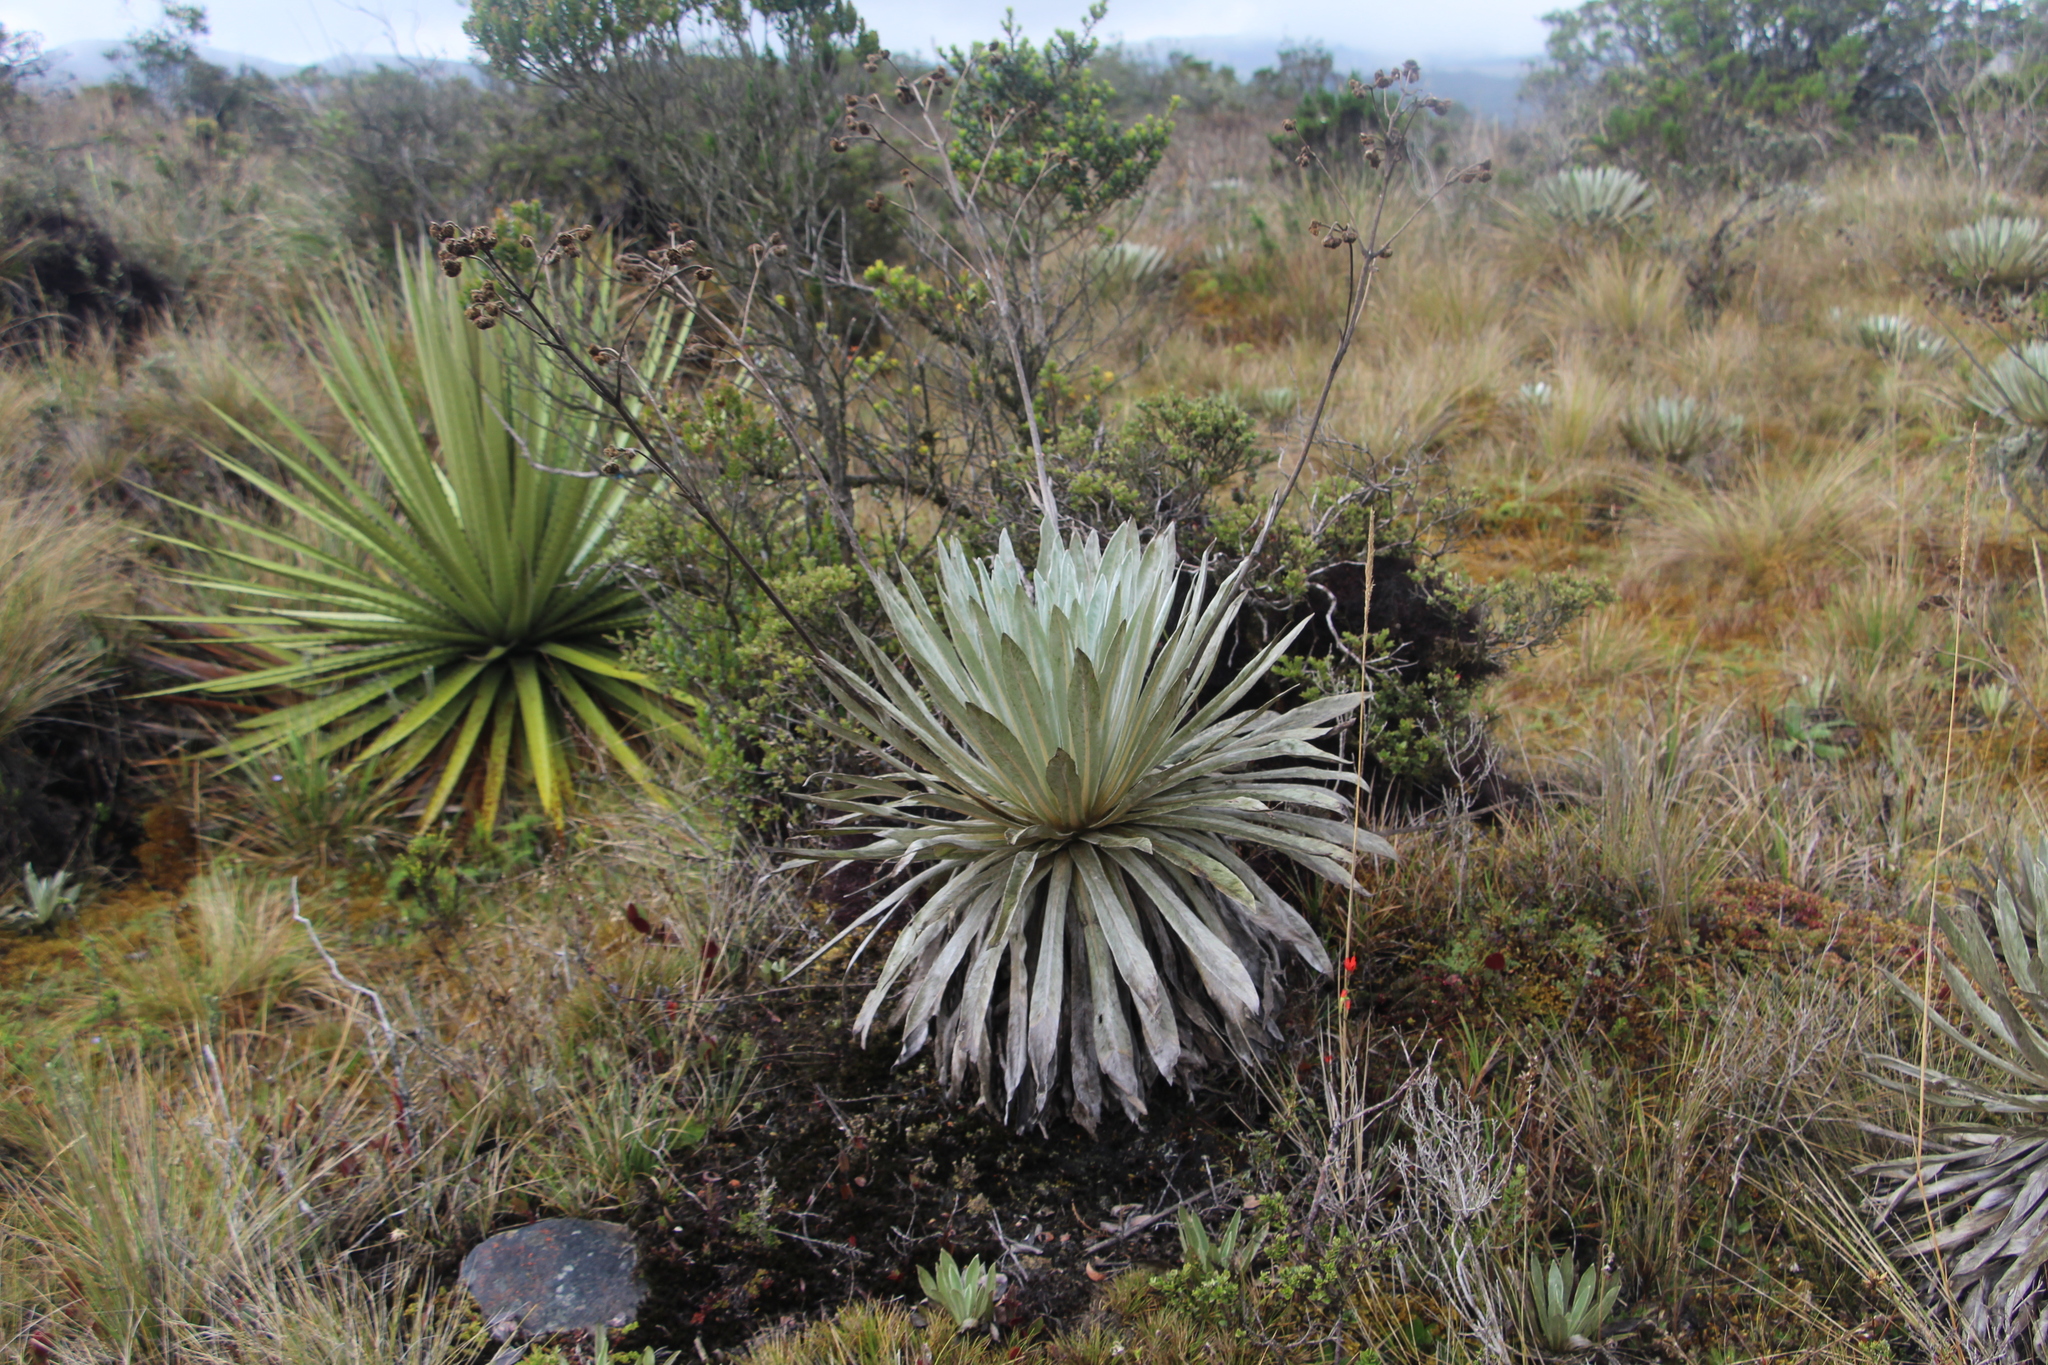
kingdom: Plantae
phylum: Tracheophyta
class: Magnoliopsida
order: Asterales
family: Asteraceae
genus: Espeletia
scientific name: Espeletia argentea
